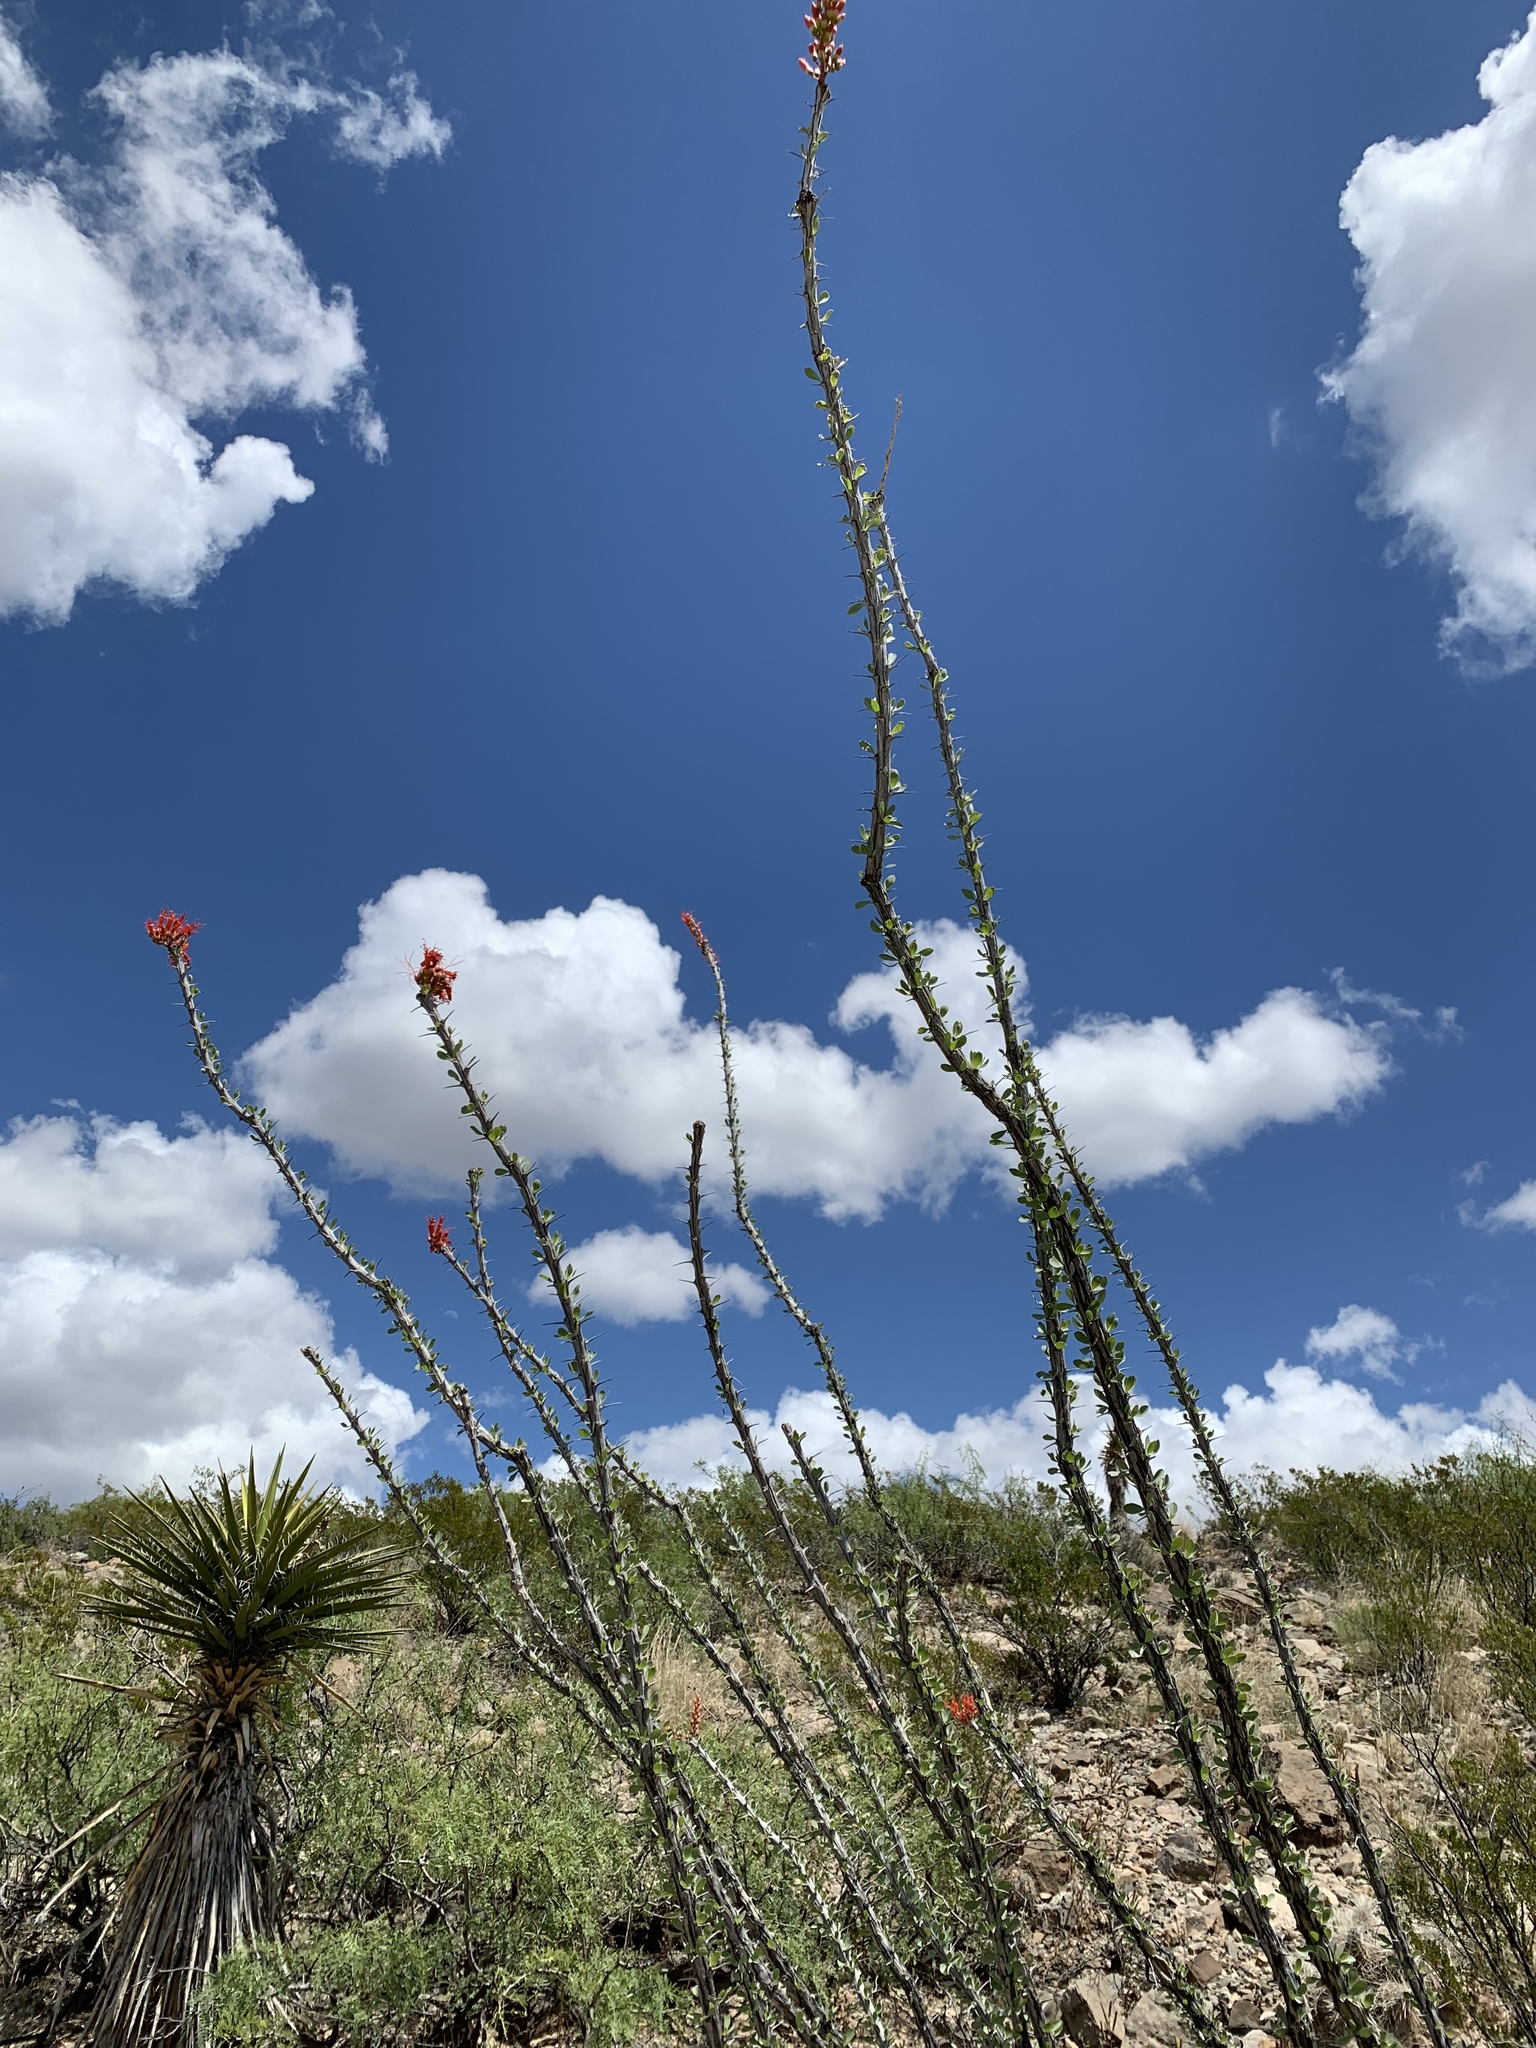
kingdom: Plantae
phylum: Tracheophyta
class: Magnoliopsida
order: Ericales
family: Fouquieriaceae
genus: Fouquieria
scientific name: Fouquieria splendens
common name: Vine-cactus
